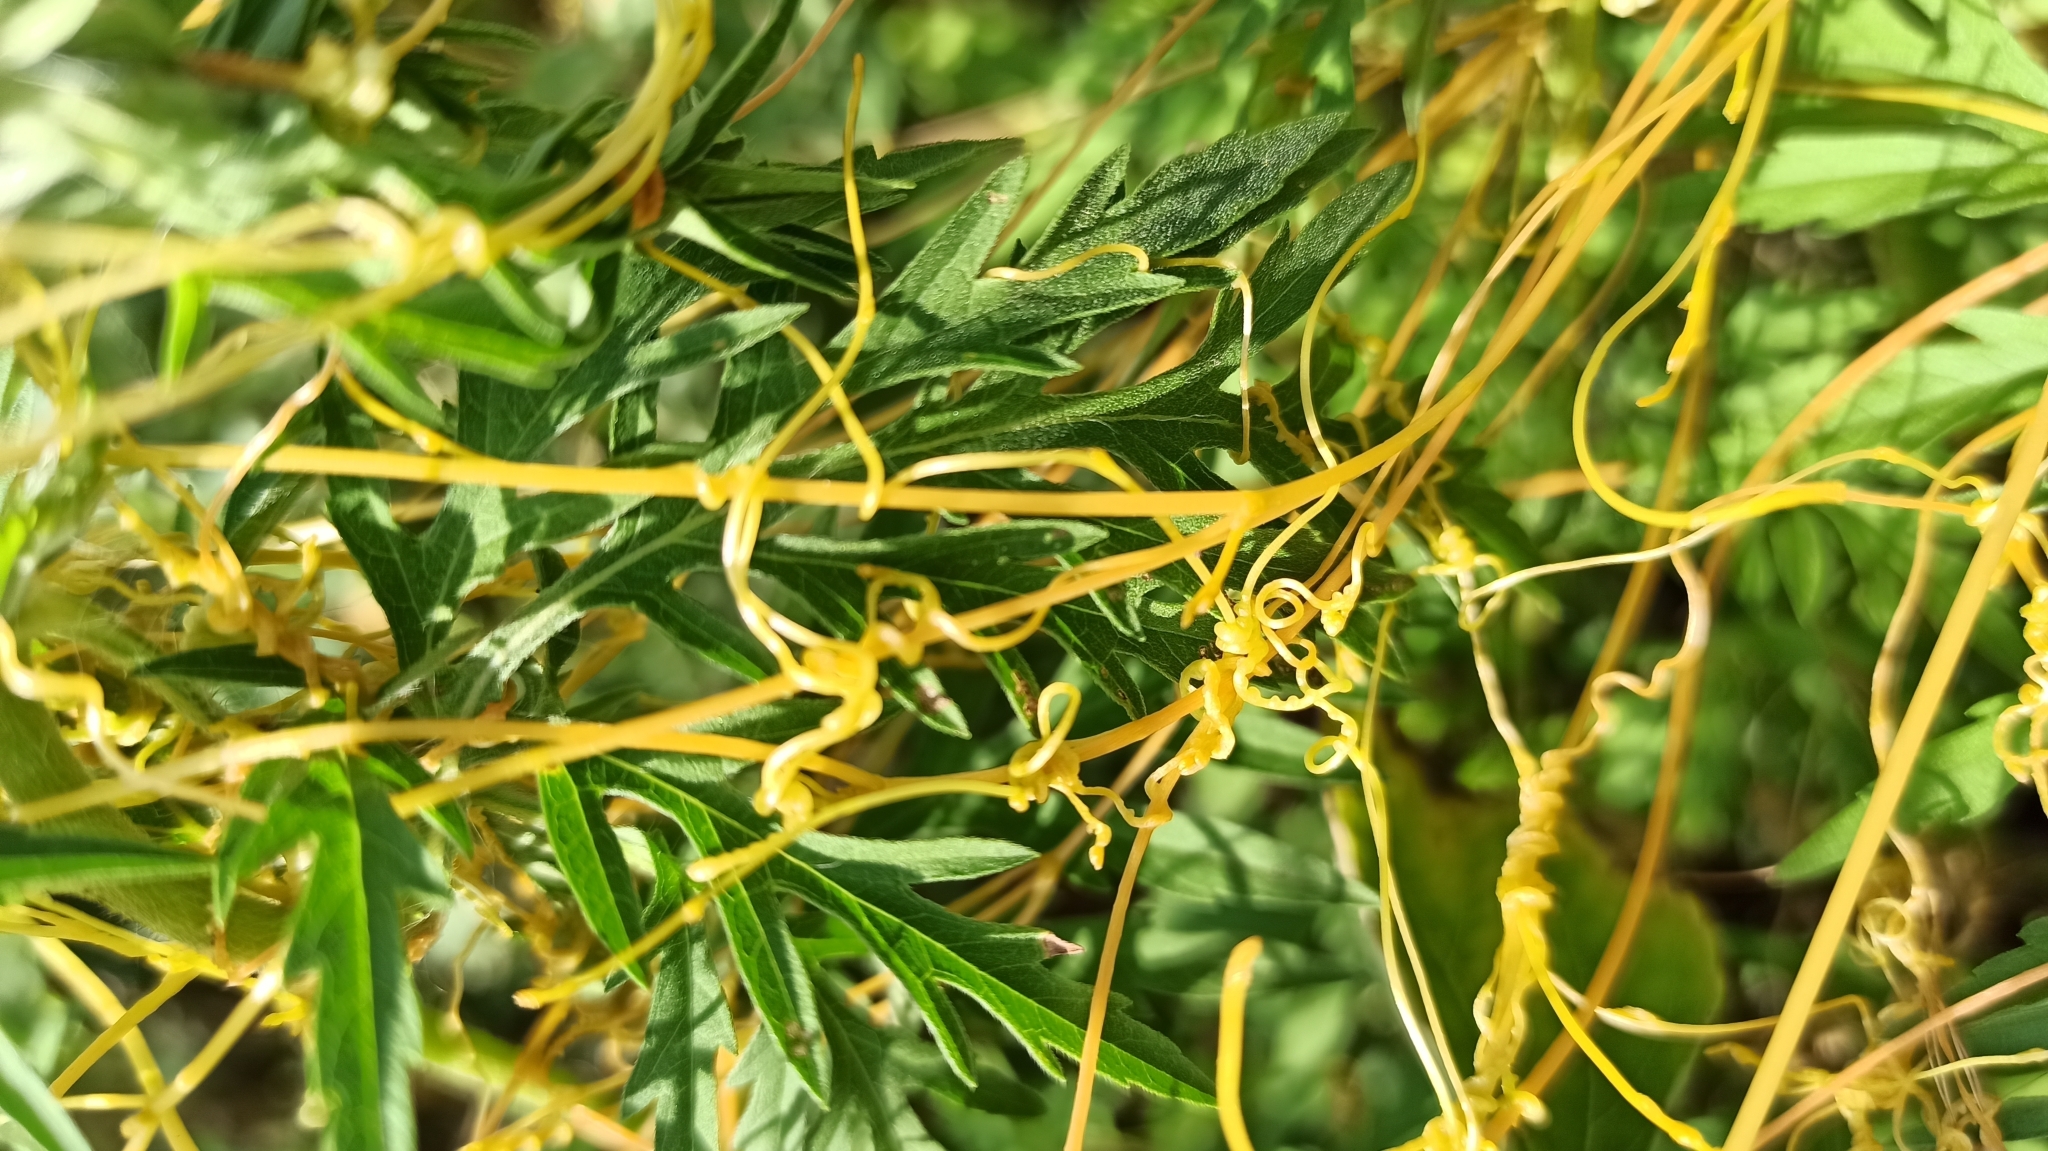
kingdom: Plantae
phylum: Tracheophyta
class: Magnoliopsida
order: Solanales
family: Convolvulaceae
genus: Cuscuta
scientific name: Cuscuta campestris
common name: Yellow dodder
